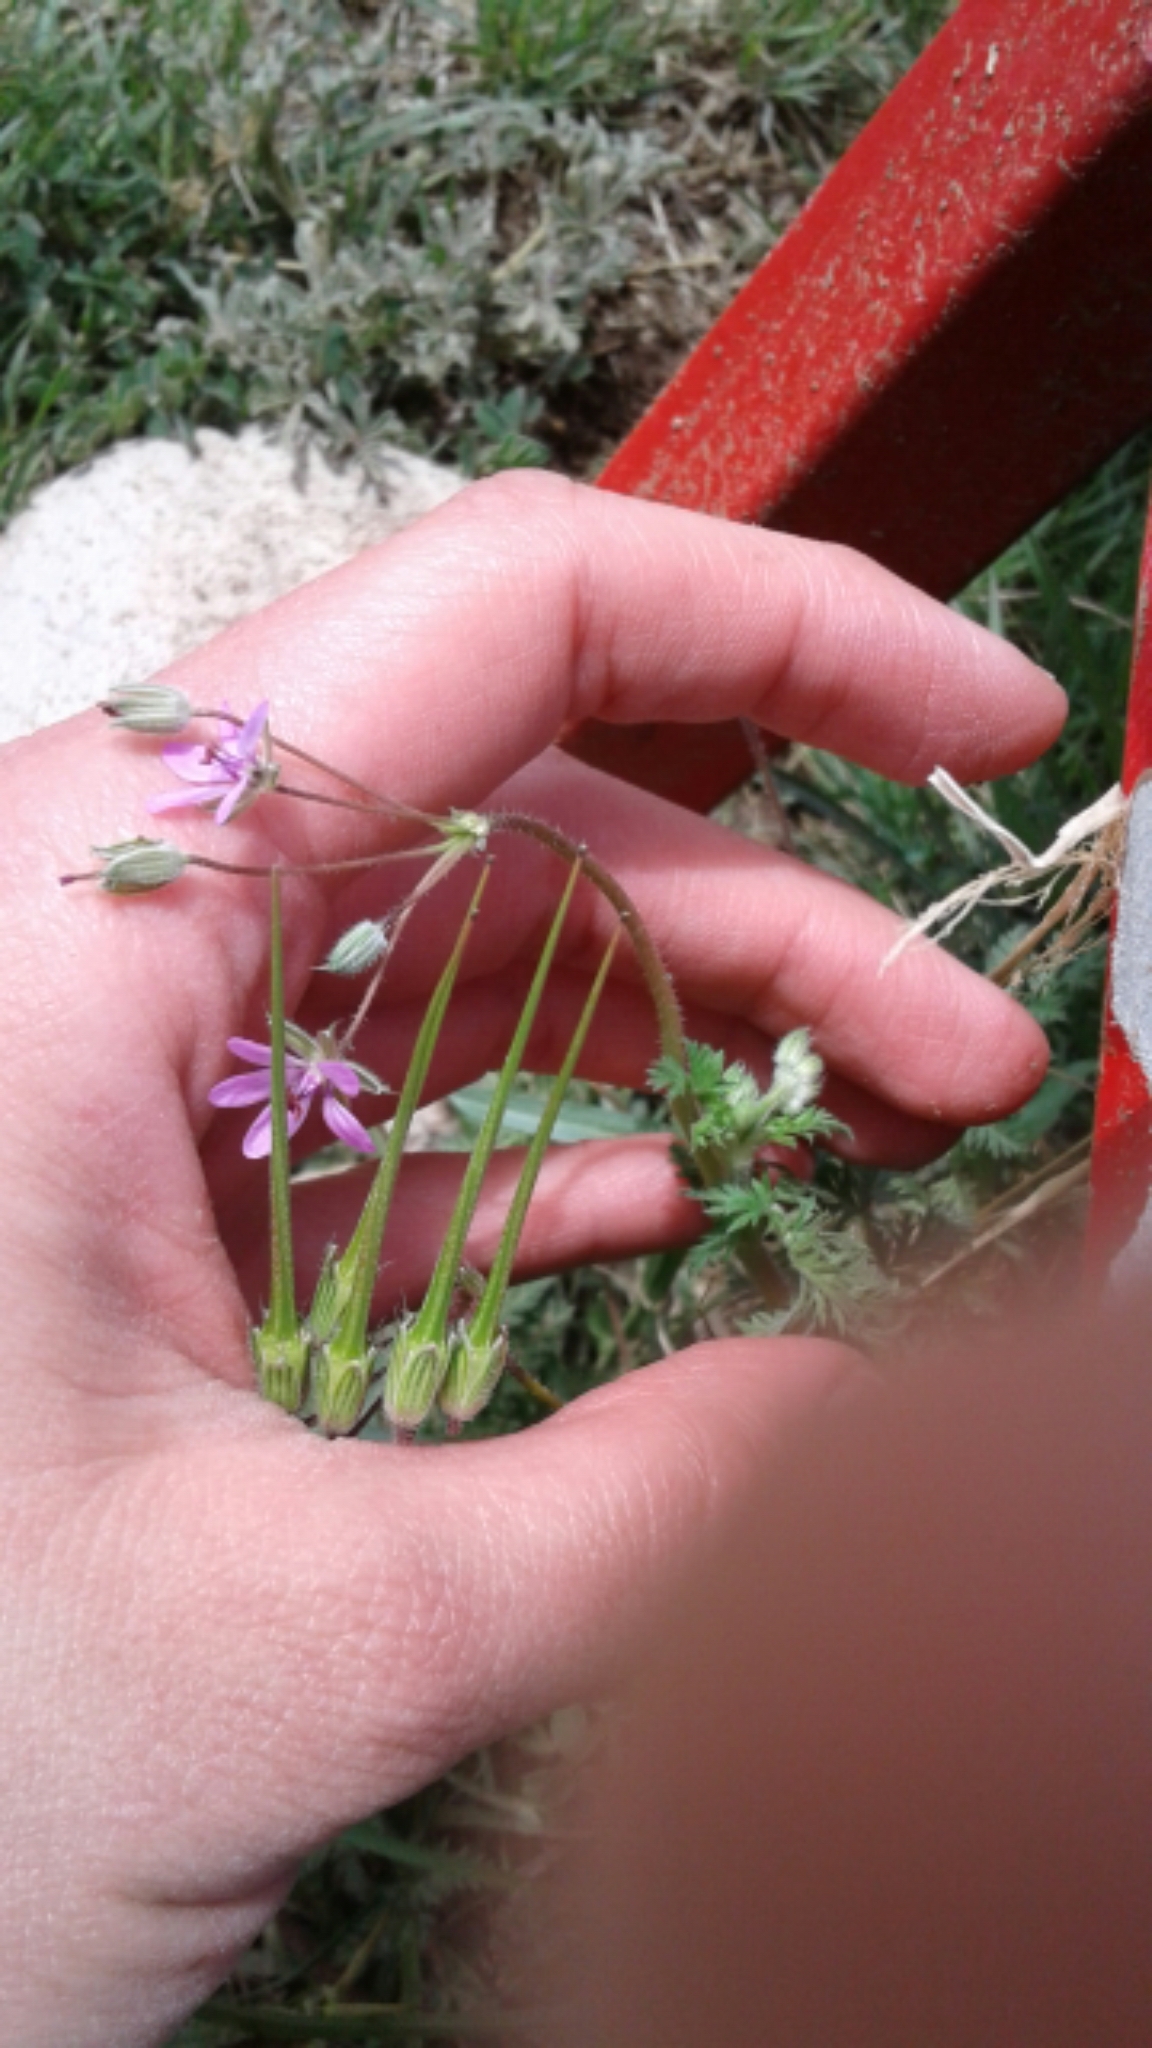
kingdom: Plantae
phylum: Tracheophyta
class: Magnoliopsida
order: Geraniales
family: Geraniaceae
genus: Erodium
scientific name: Erodium cicutarium
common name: Common stork's-bill
